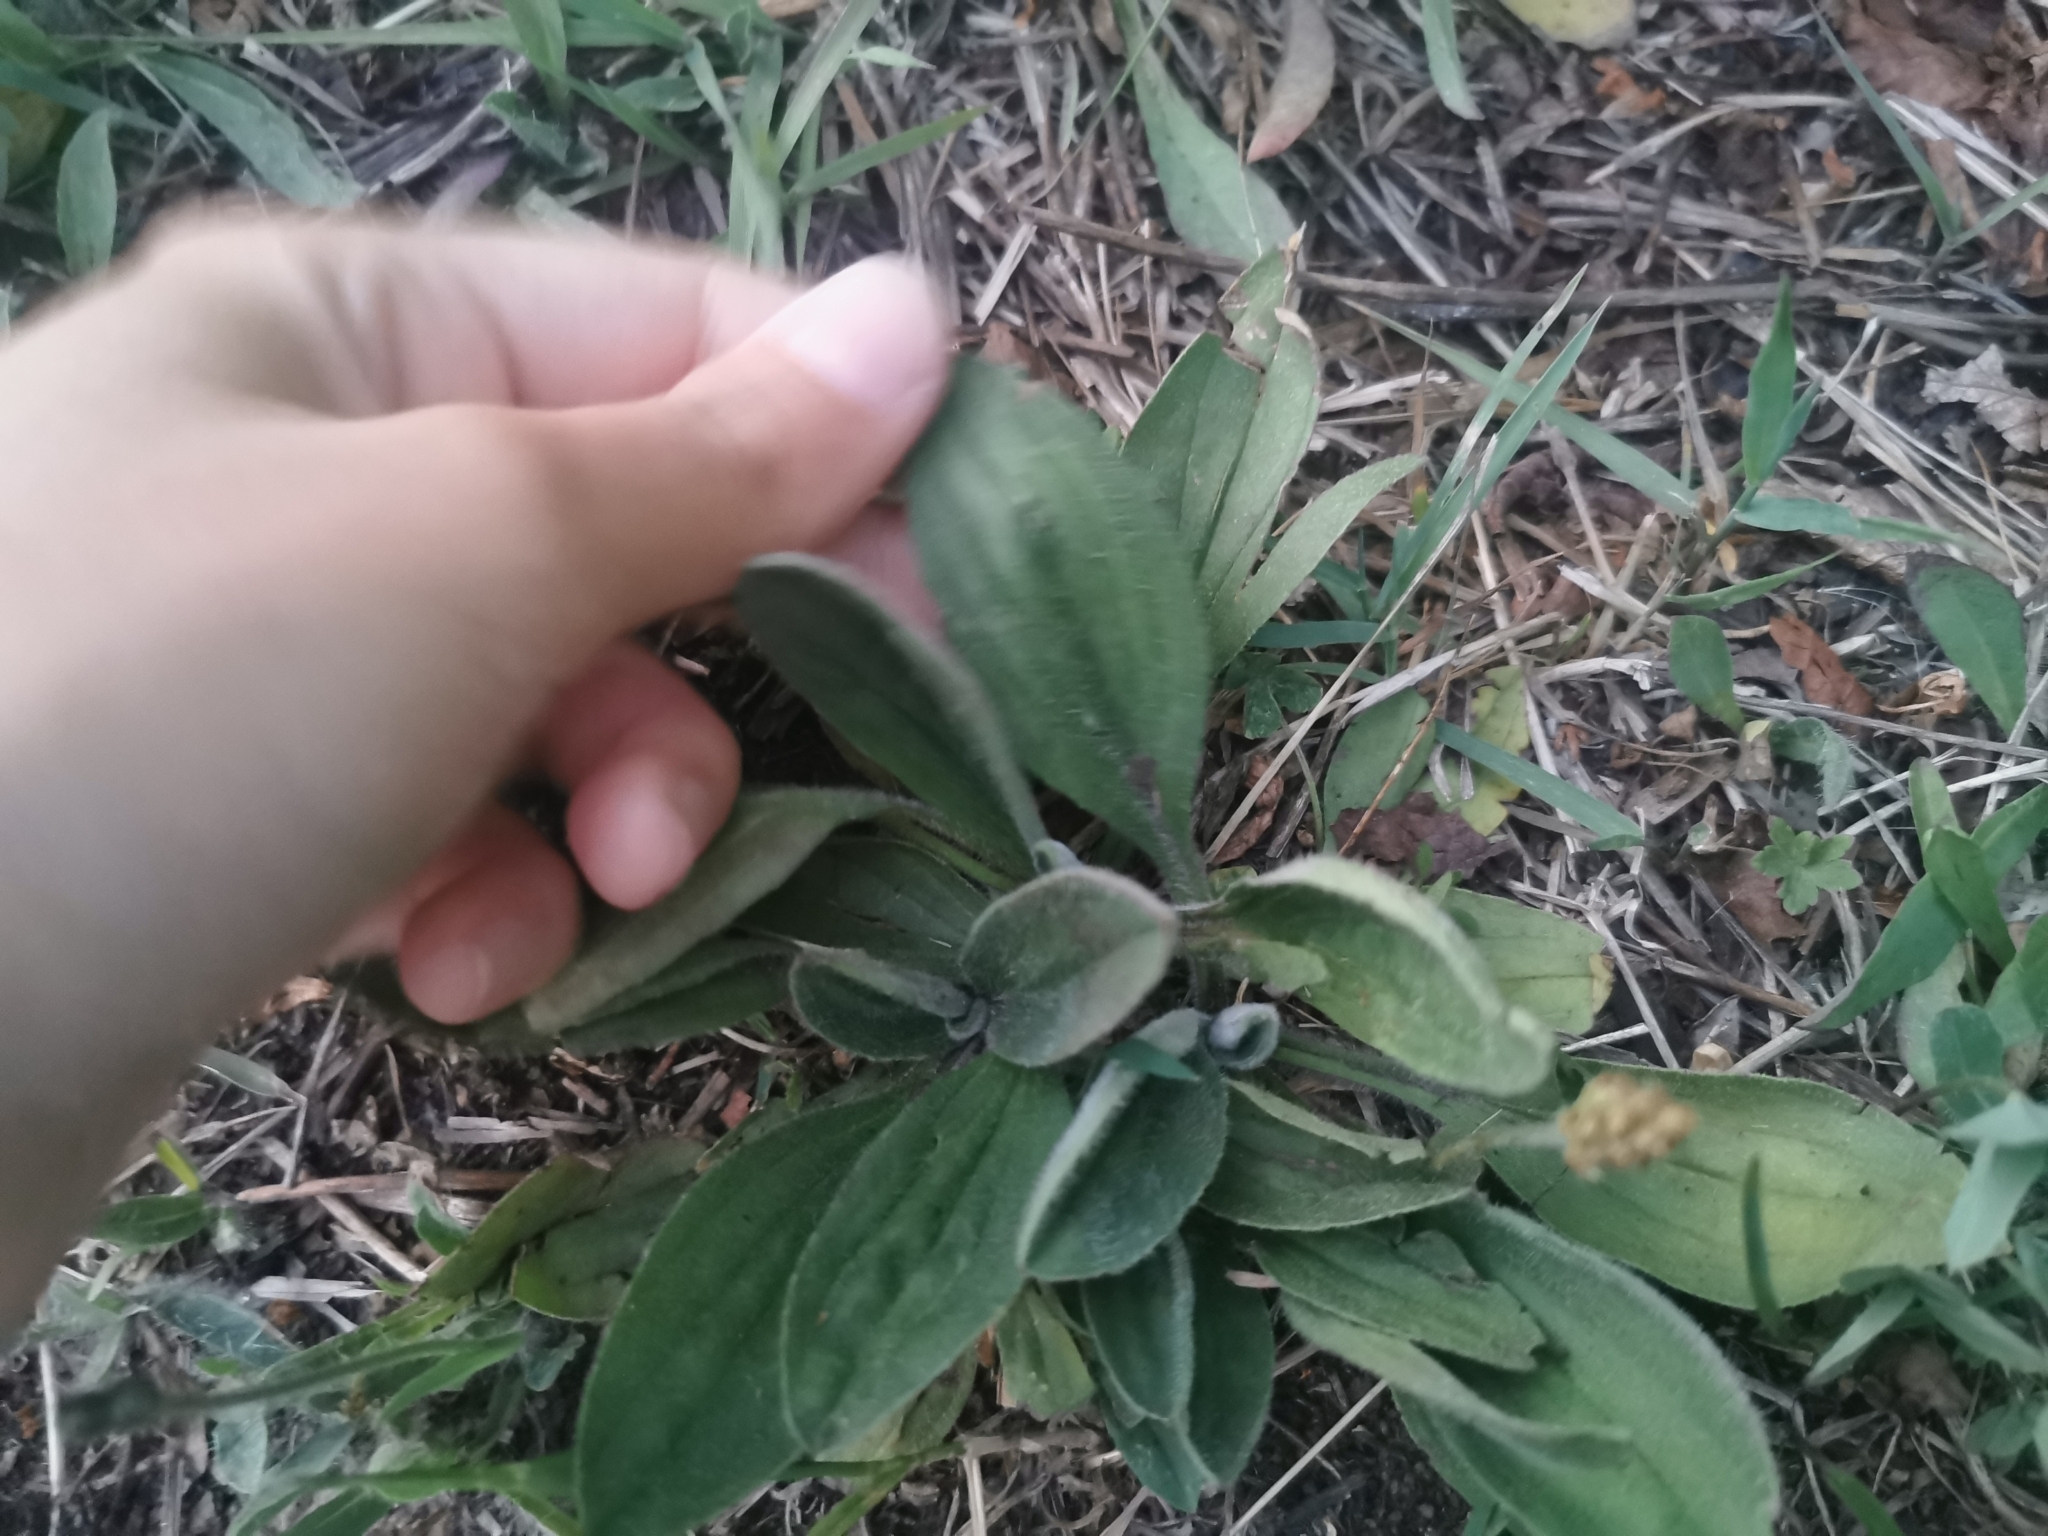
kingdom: Plantae
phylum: Tracheophyta
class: Magnoliopsida
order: Lamiales
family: Plantaginaceae
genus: Plantago
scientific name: Plantago camtschatica
